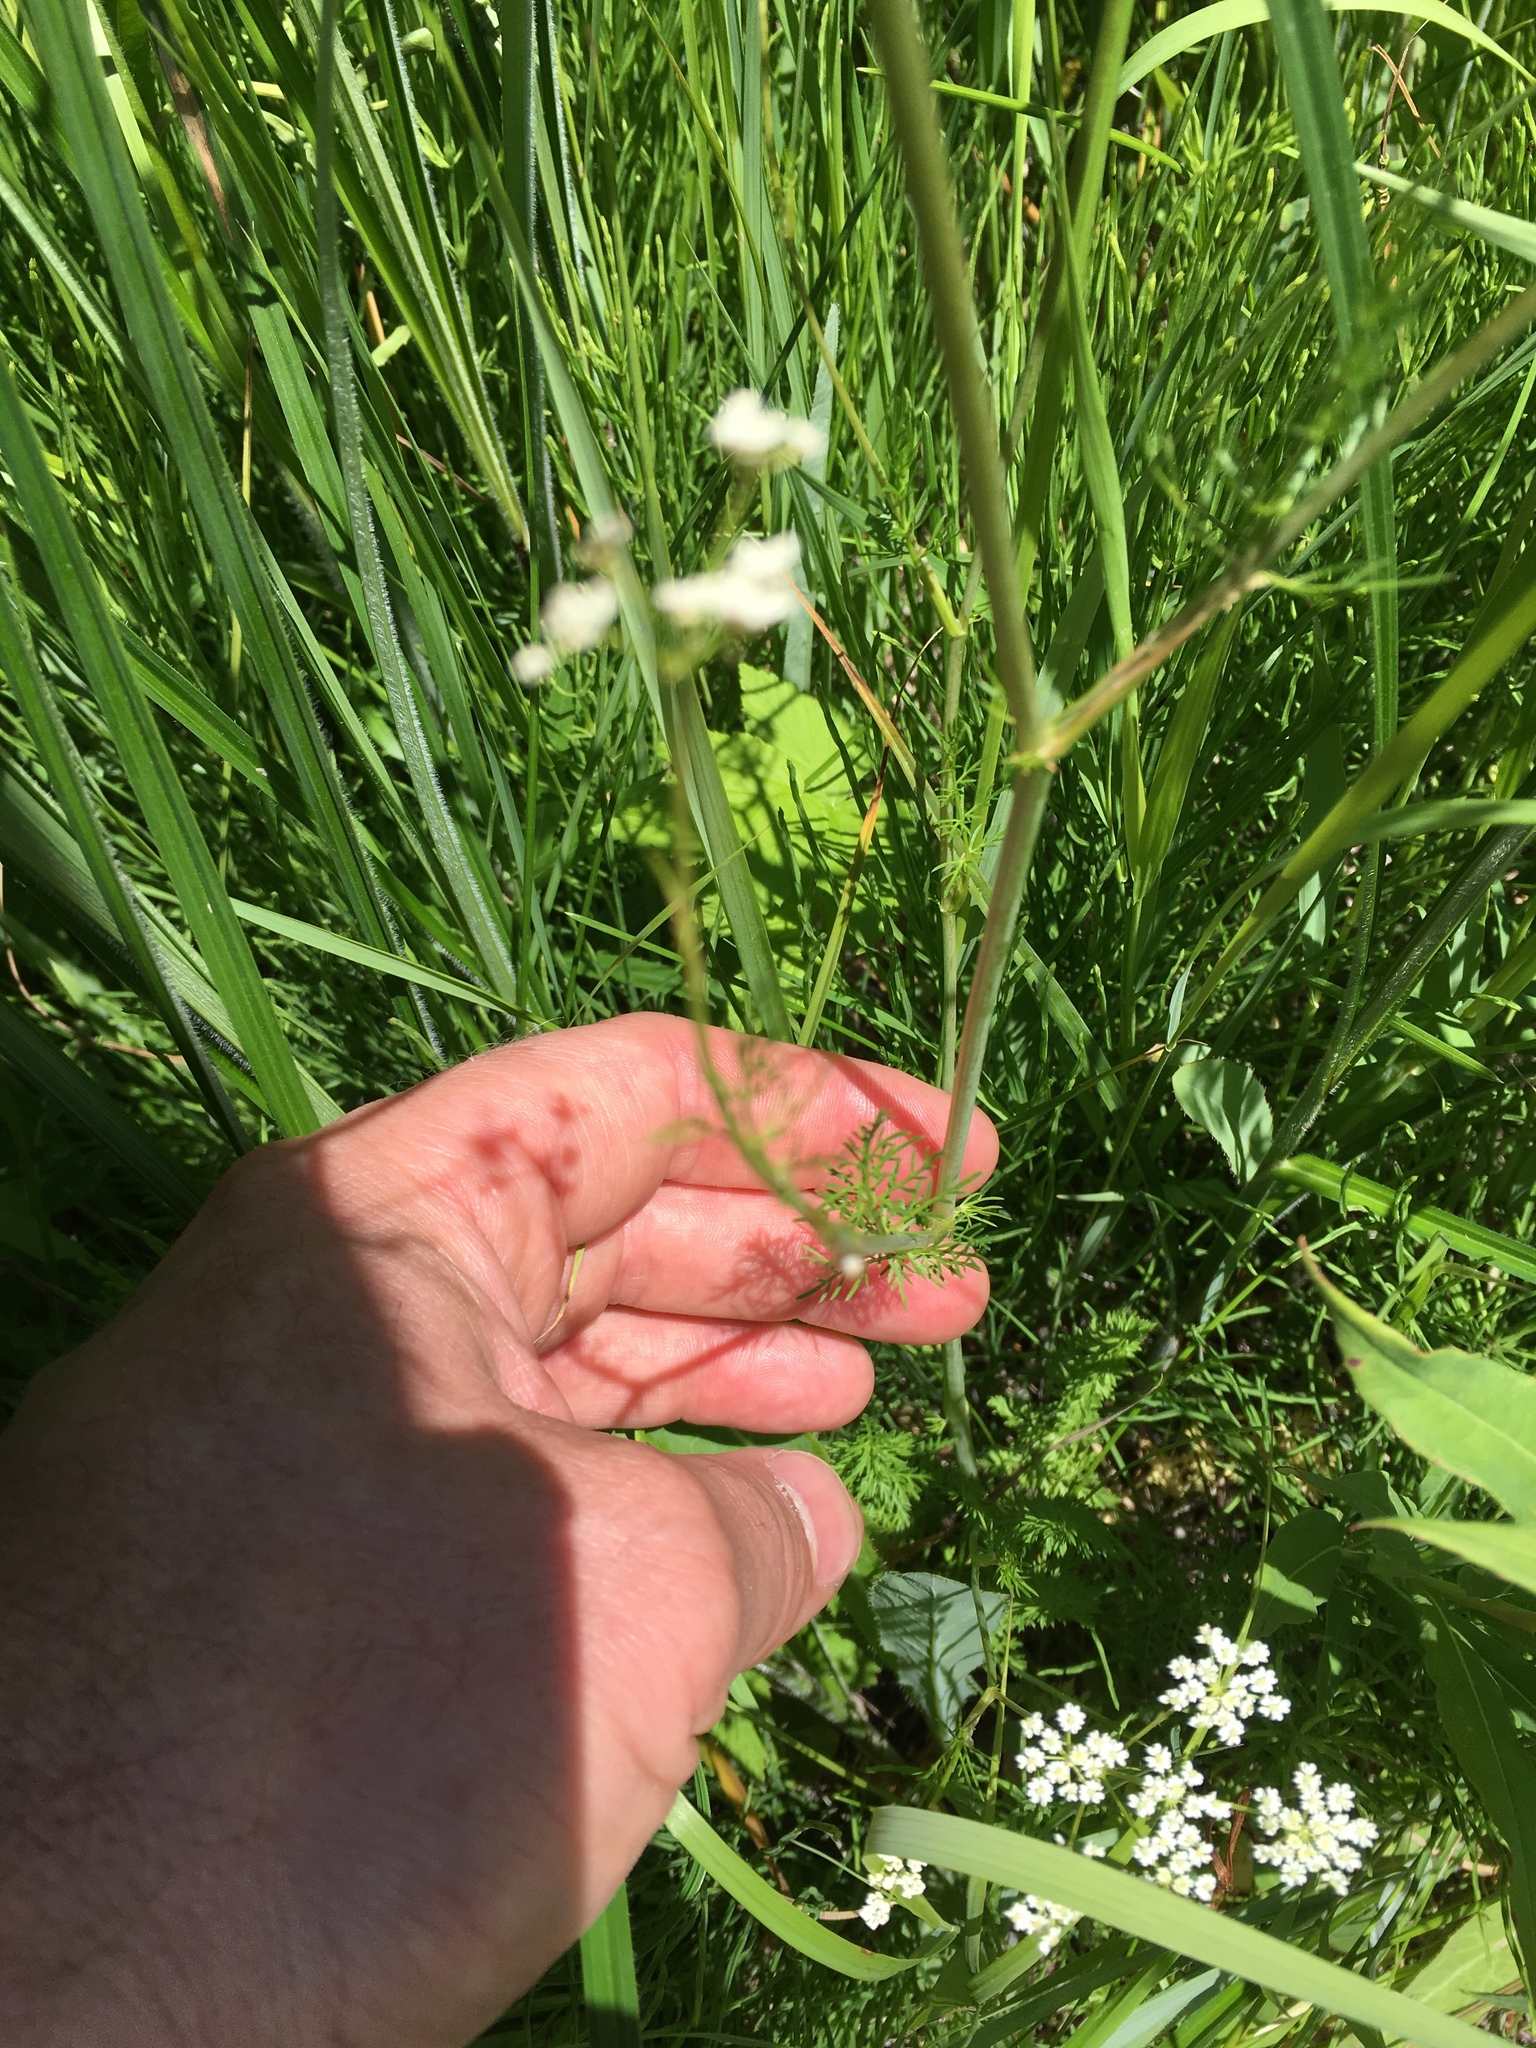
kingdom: Plantae
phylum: Tracheophyta
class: Magnoliopsida
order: Apiales
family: Apiaceae
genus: Carum
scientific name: Carum carvi
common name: Caraway
